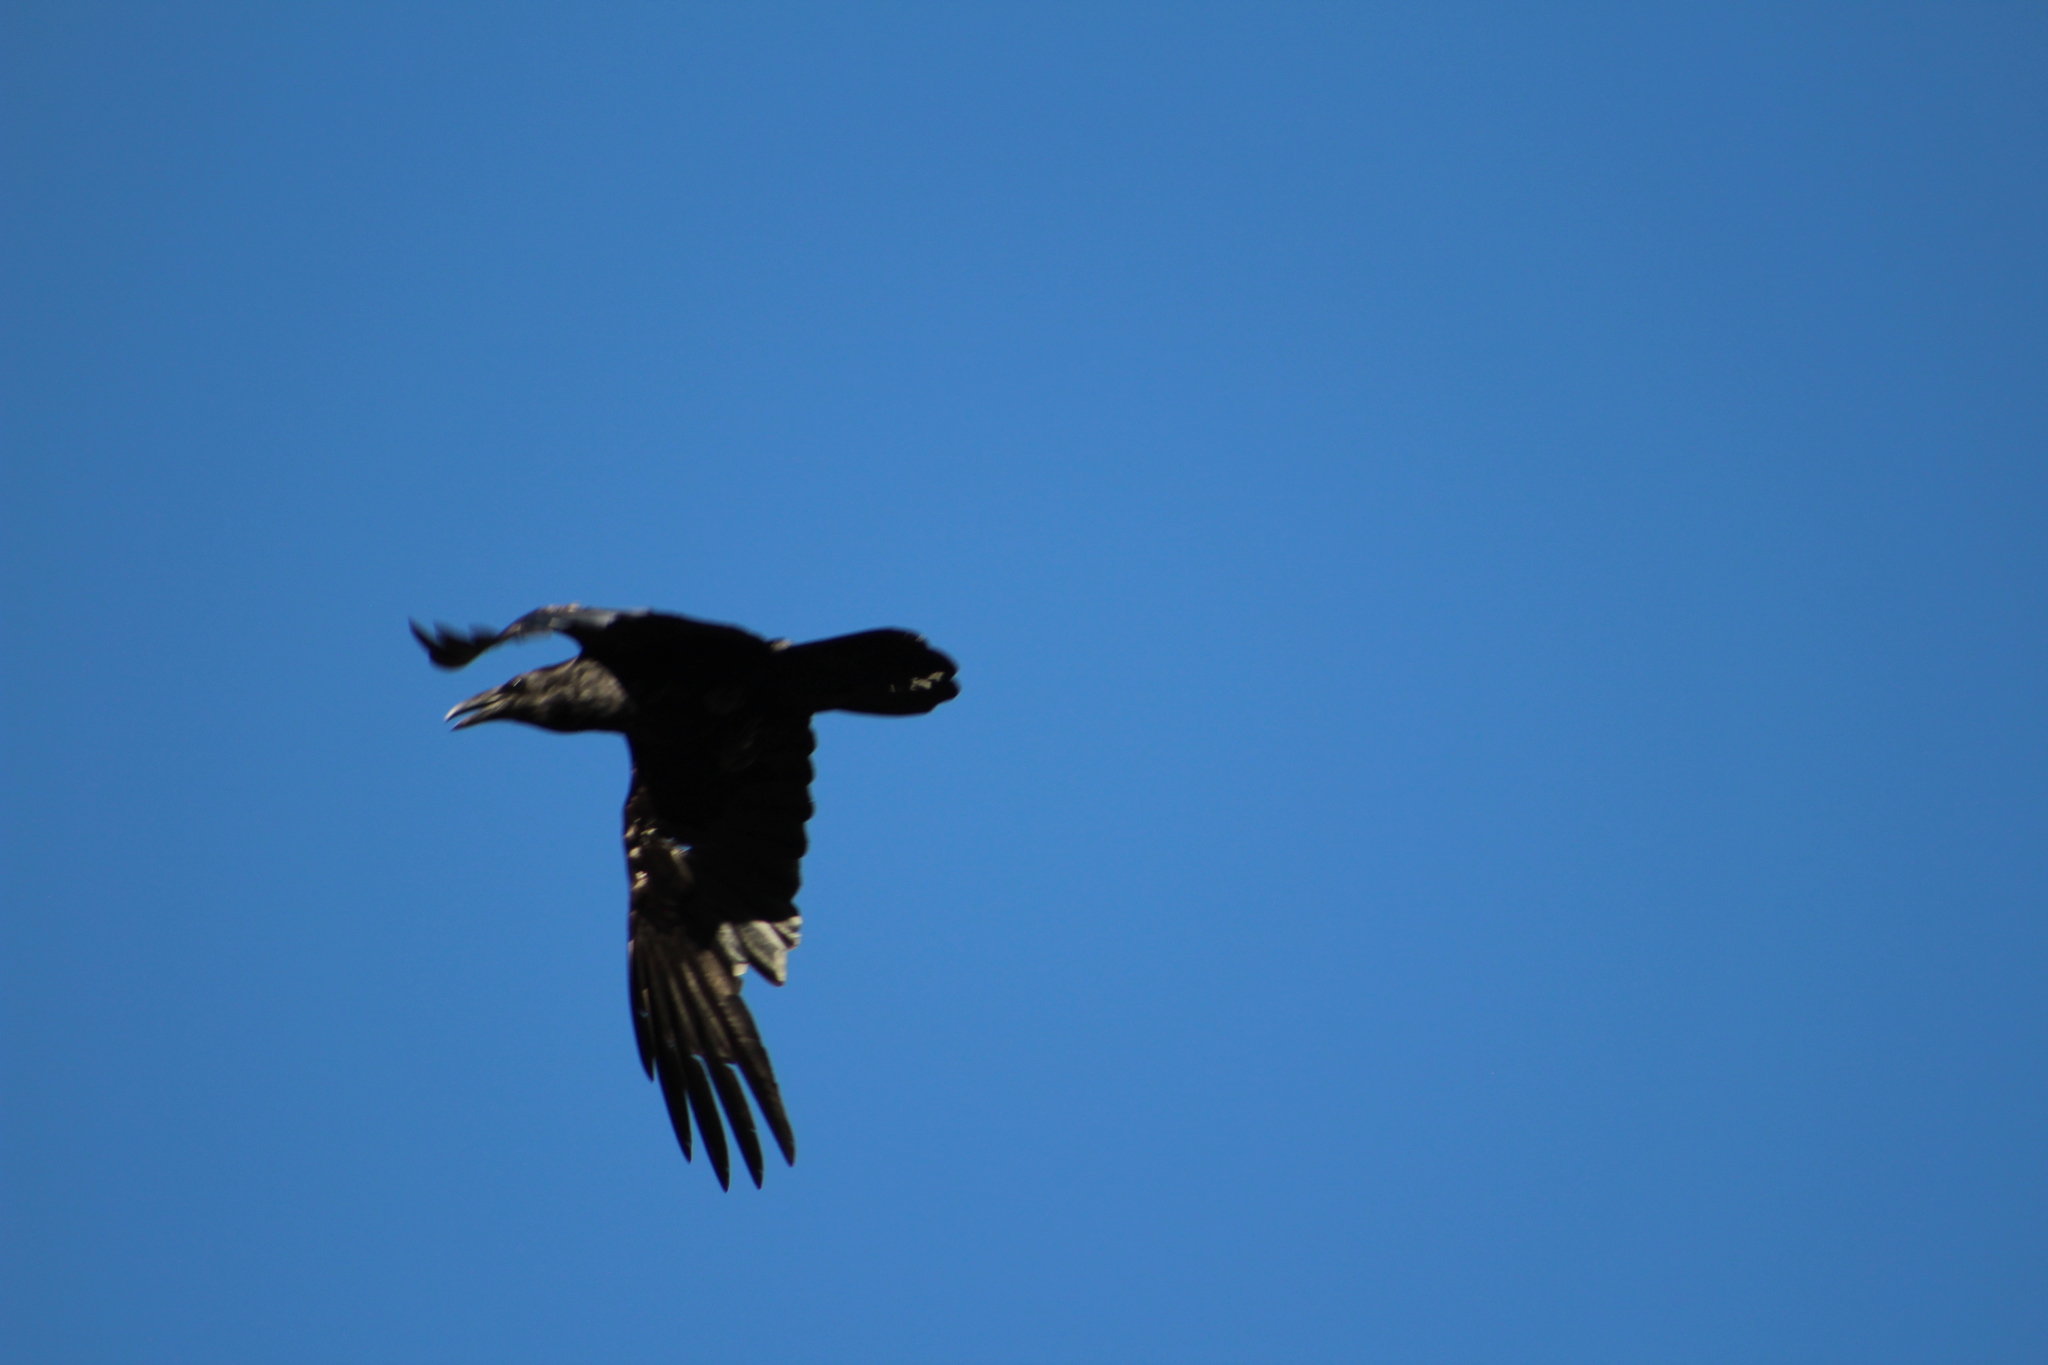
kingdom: Animalia
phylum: Chordata
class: Aves
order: Passeriformes
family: Corvidae
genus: Corvus
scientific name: Corvus corax
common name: Common raven
